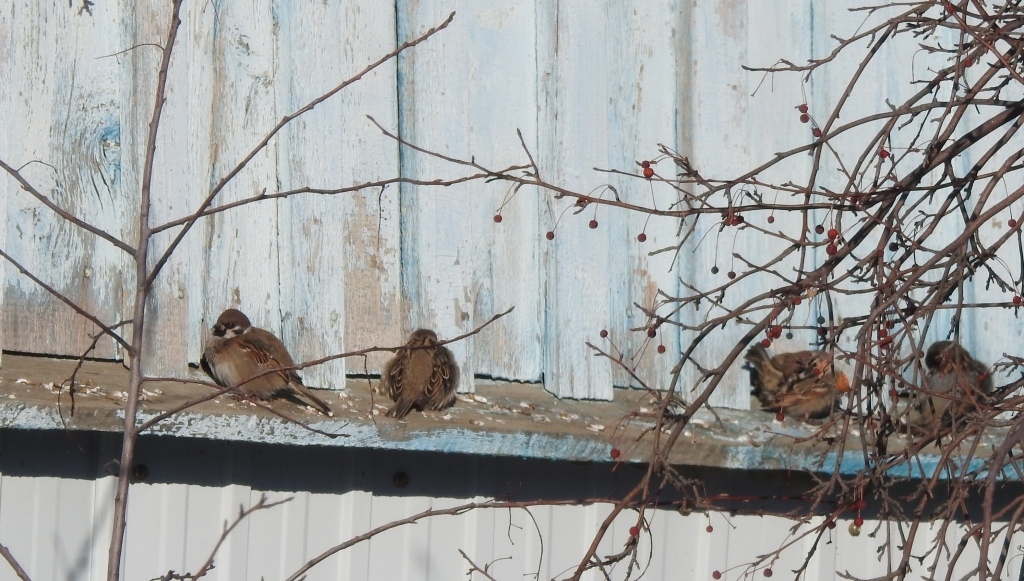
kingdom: Animalia
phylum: Chordata
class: Aves
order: Passeriformes
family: Passeridae
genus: Passer
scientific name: Passer montanus
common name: Eurasian tree sparrow
